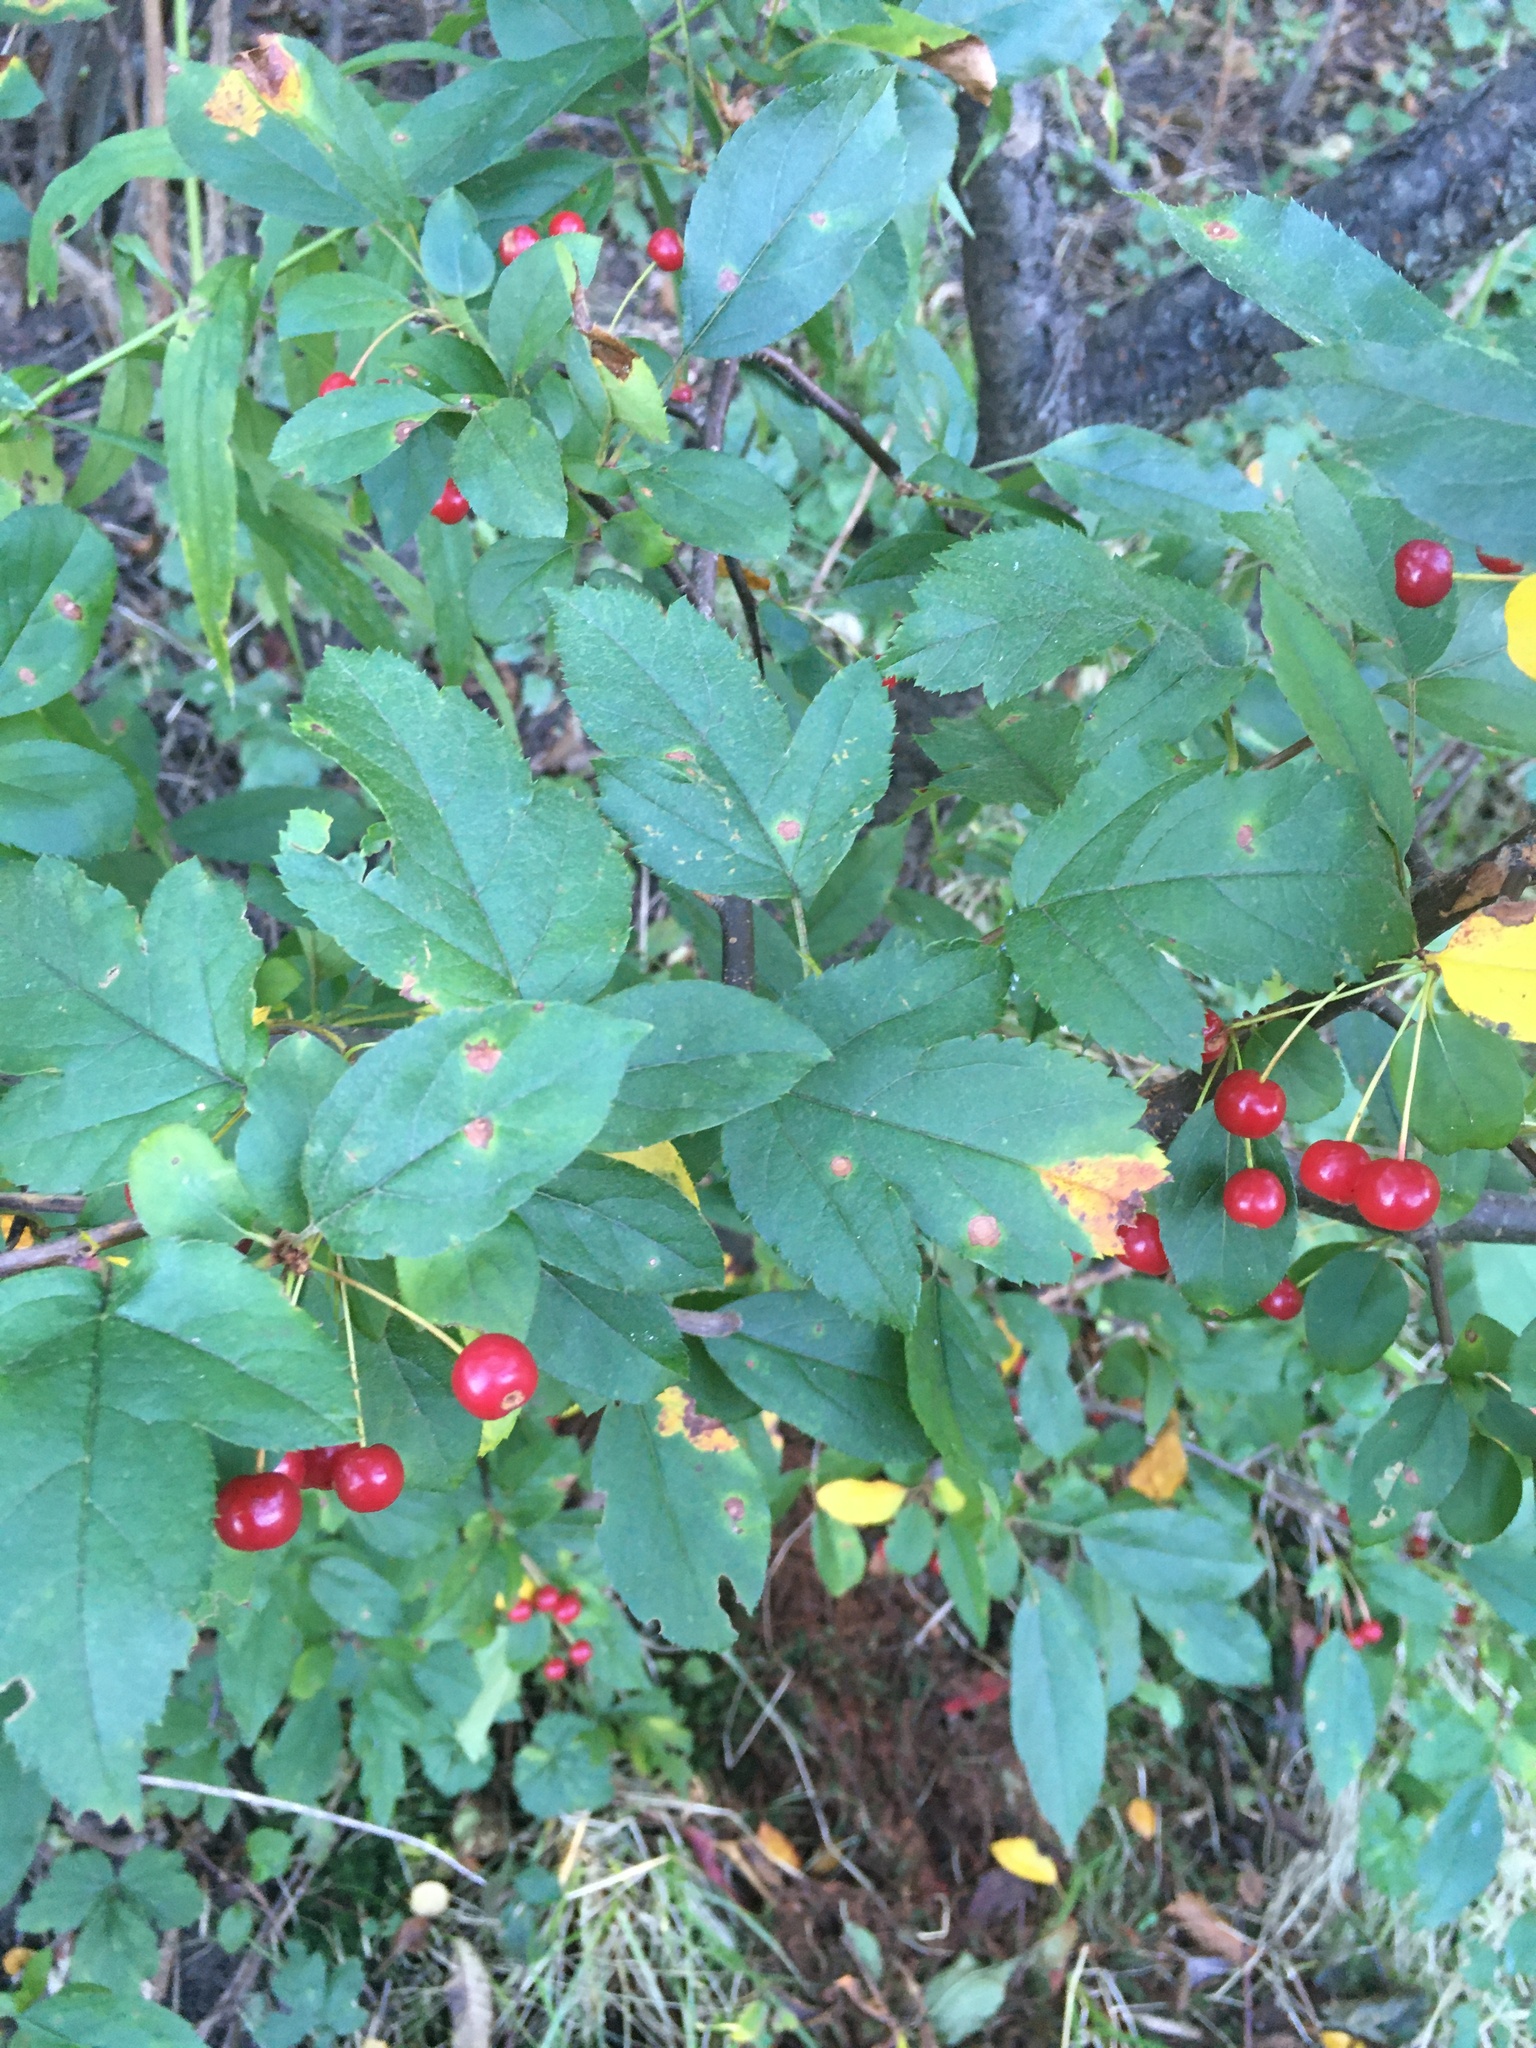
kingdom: Plantae
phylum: Tracheophyta
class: Magnoliopsida
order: Rosales
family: Rosaceae
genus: Malus
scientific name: Malus
